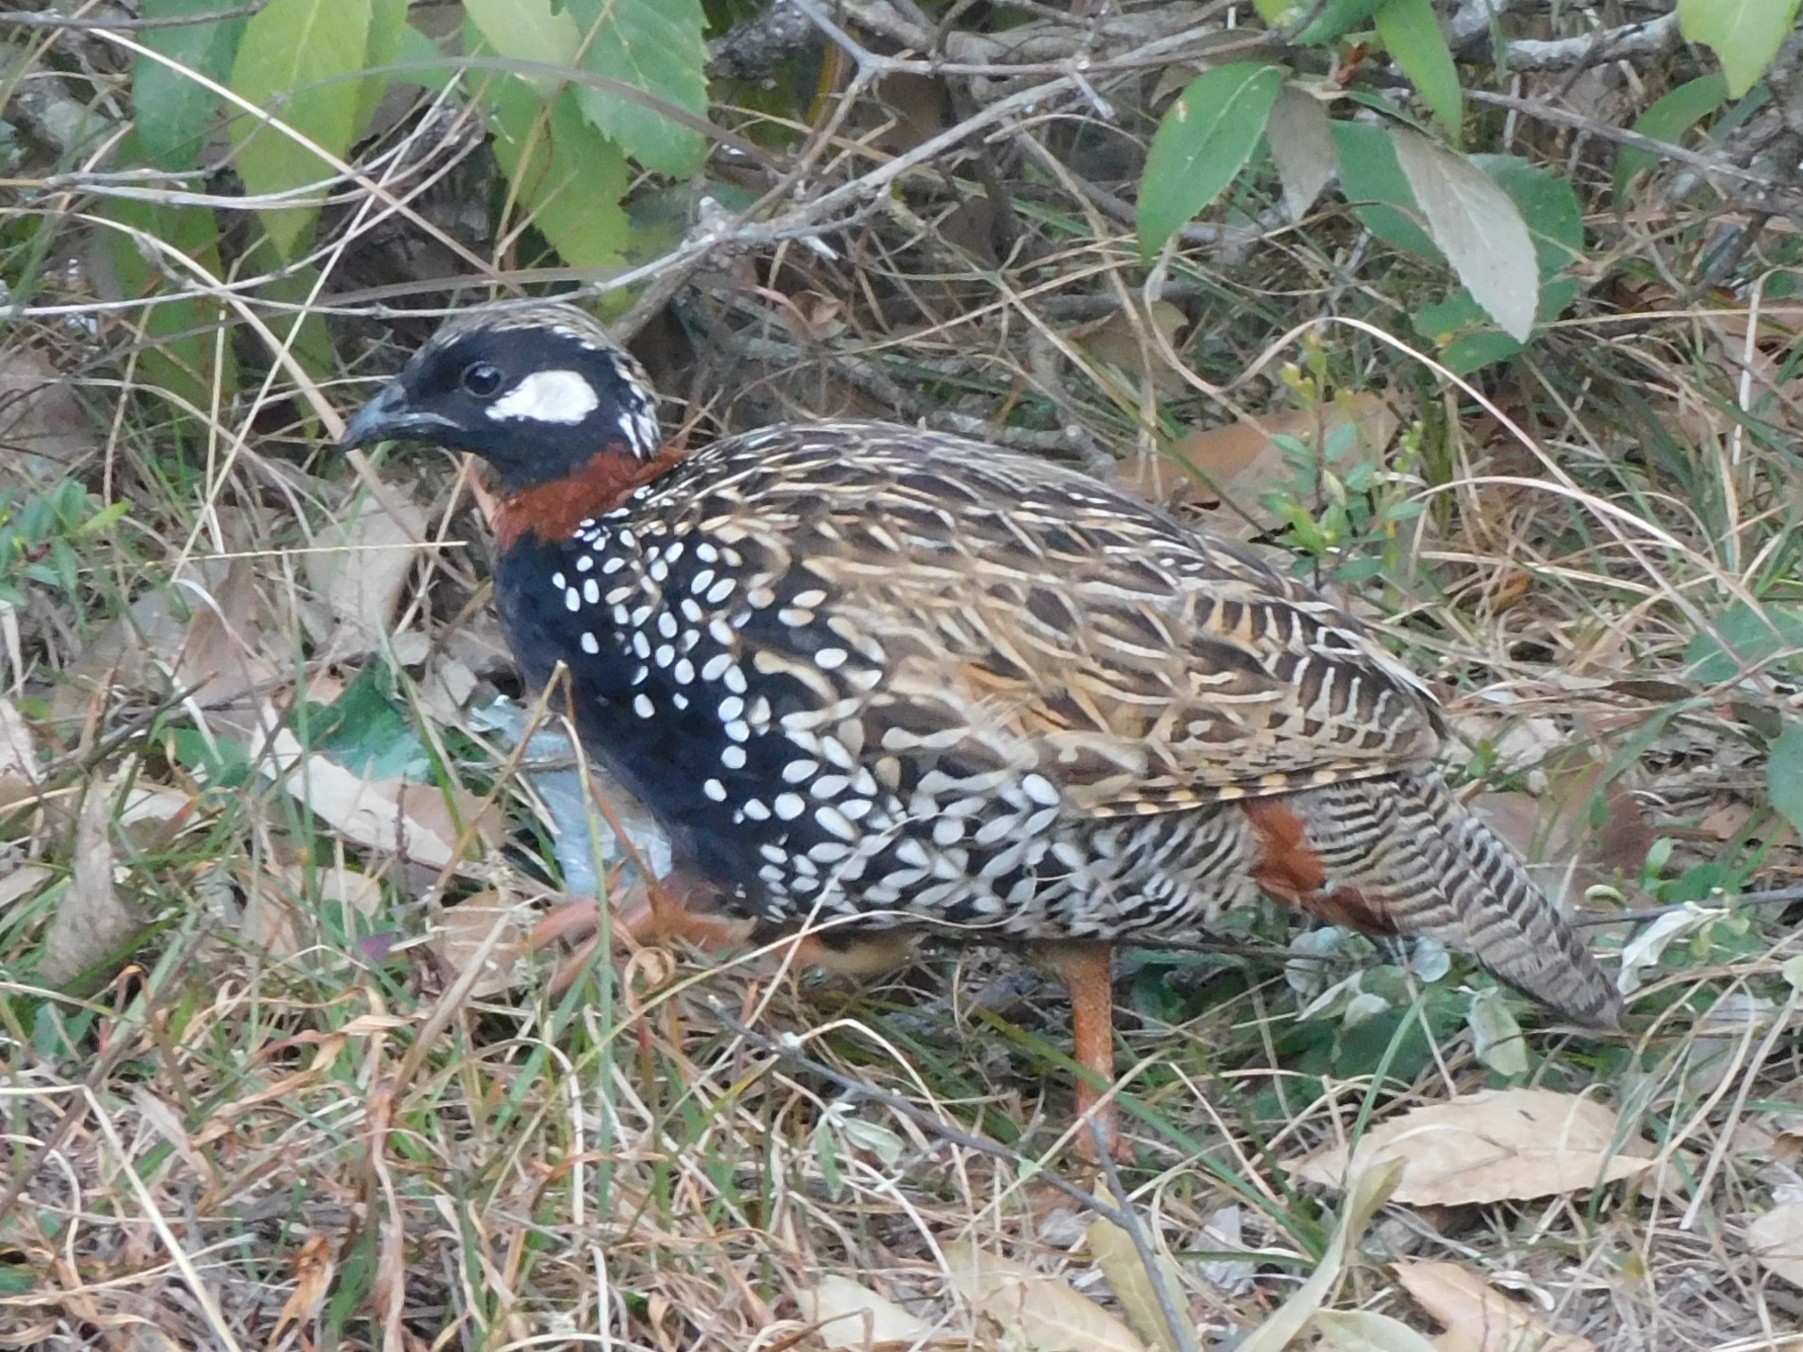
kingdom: Animalia
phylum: Chordata
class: Aves
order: Galliformes
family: Phasianidae
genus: Francolinus
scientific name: Francolinus francolinus
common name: Black francolin
